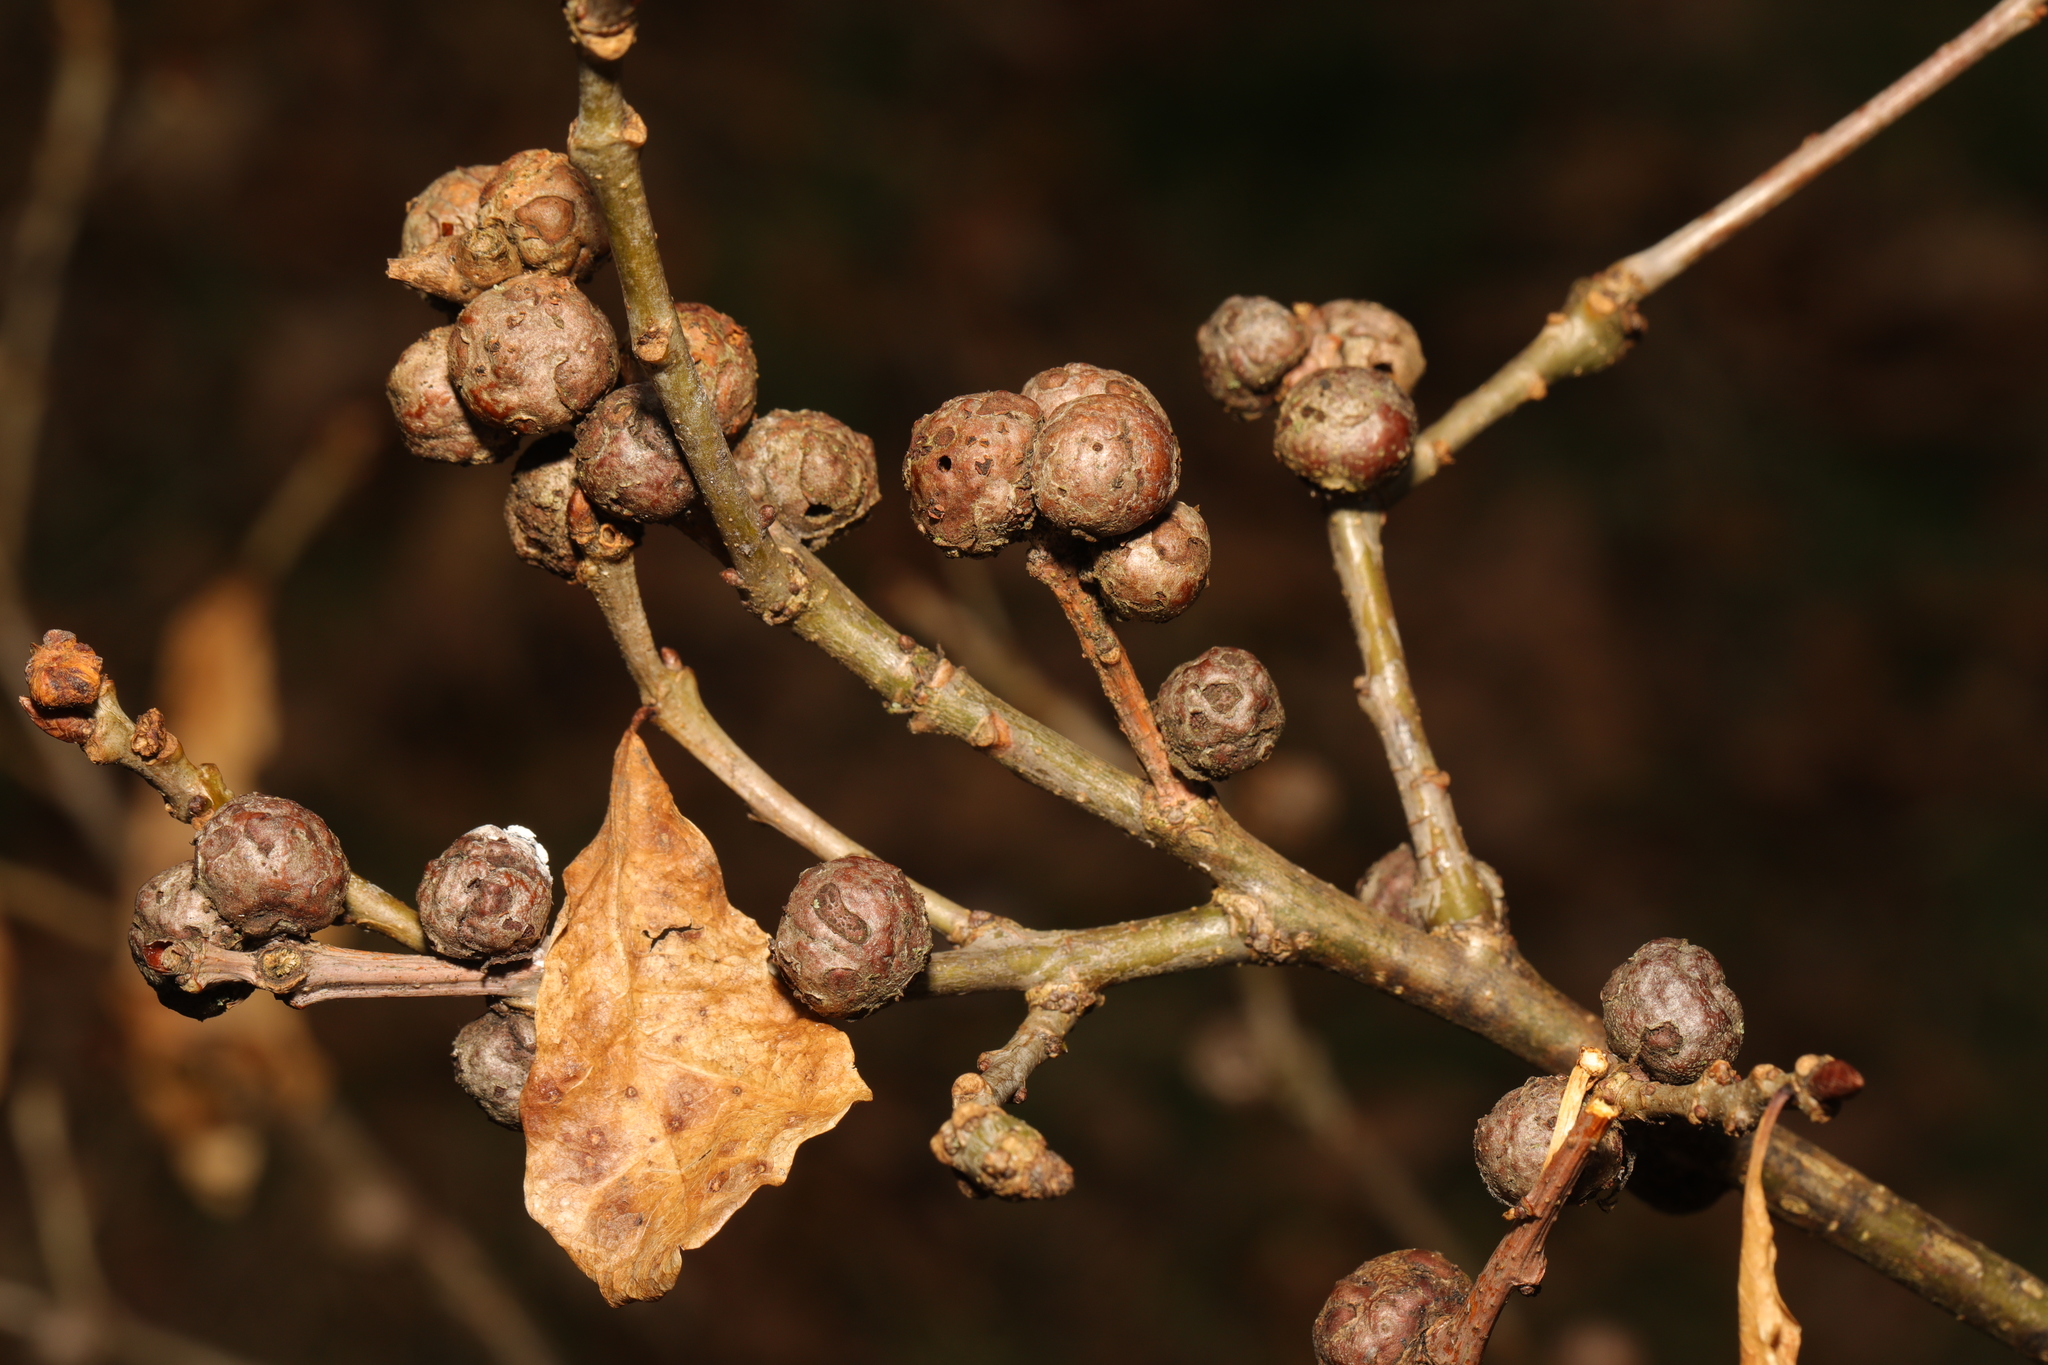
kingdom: Animalia
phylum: Arthropoda
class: Insecta
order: Hymenoptera
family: Cynipidae
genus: Andricus
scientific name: Andricus lignicolus
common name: Cola-nut gall
